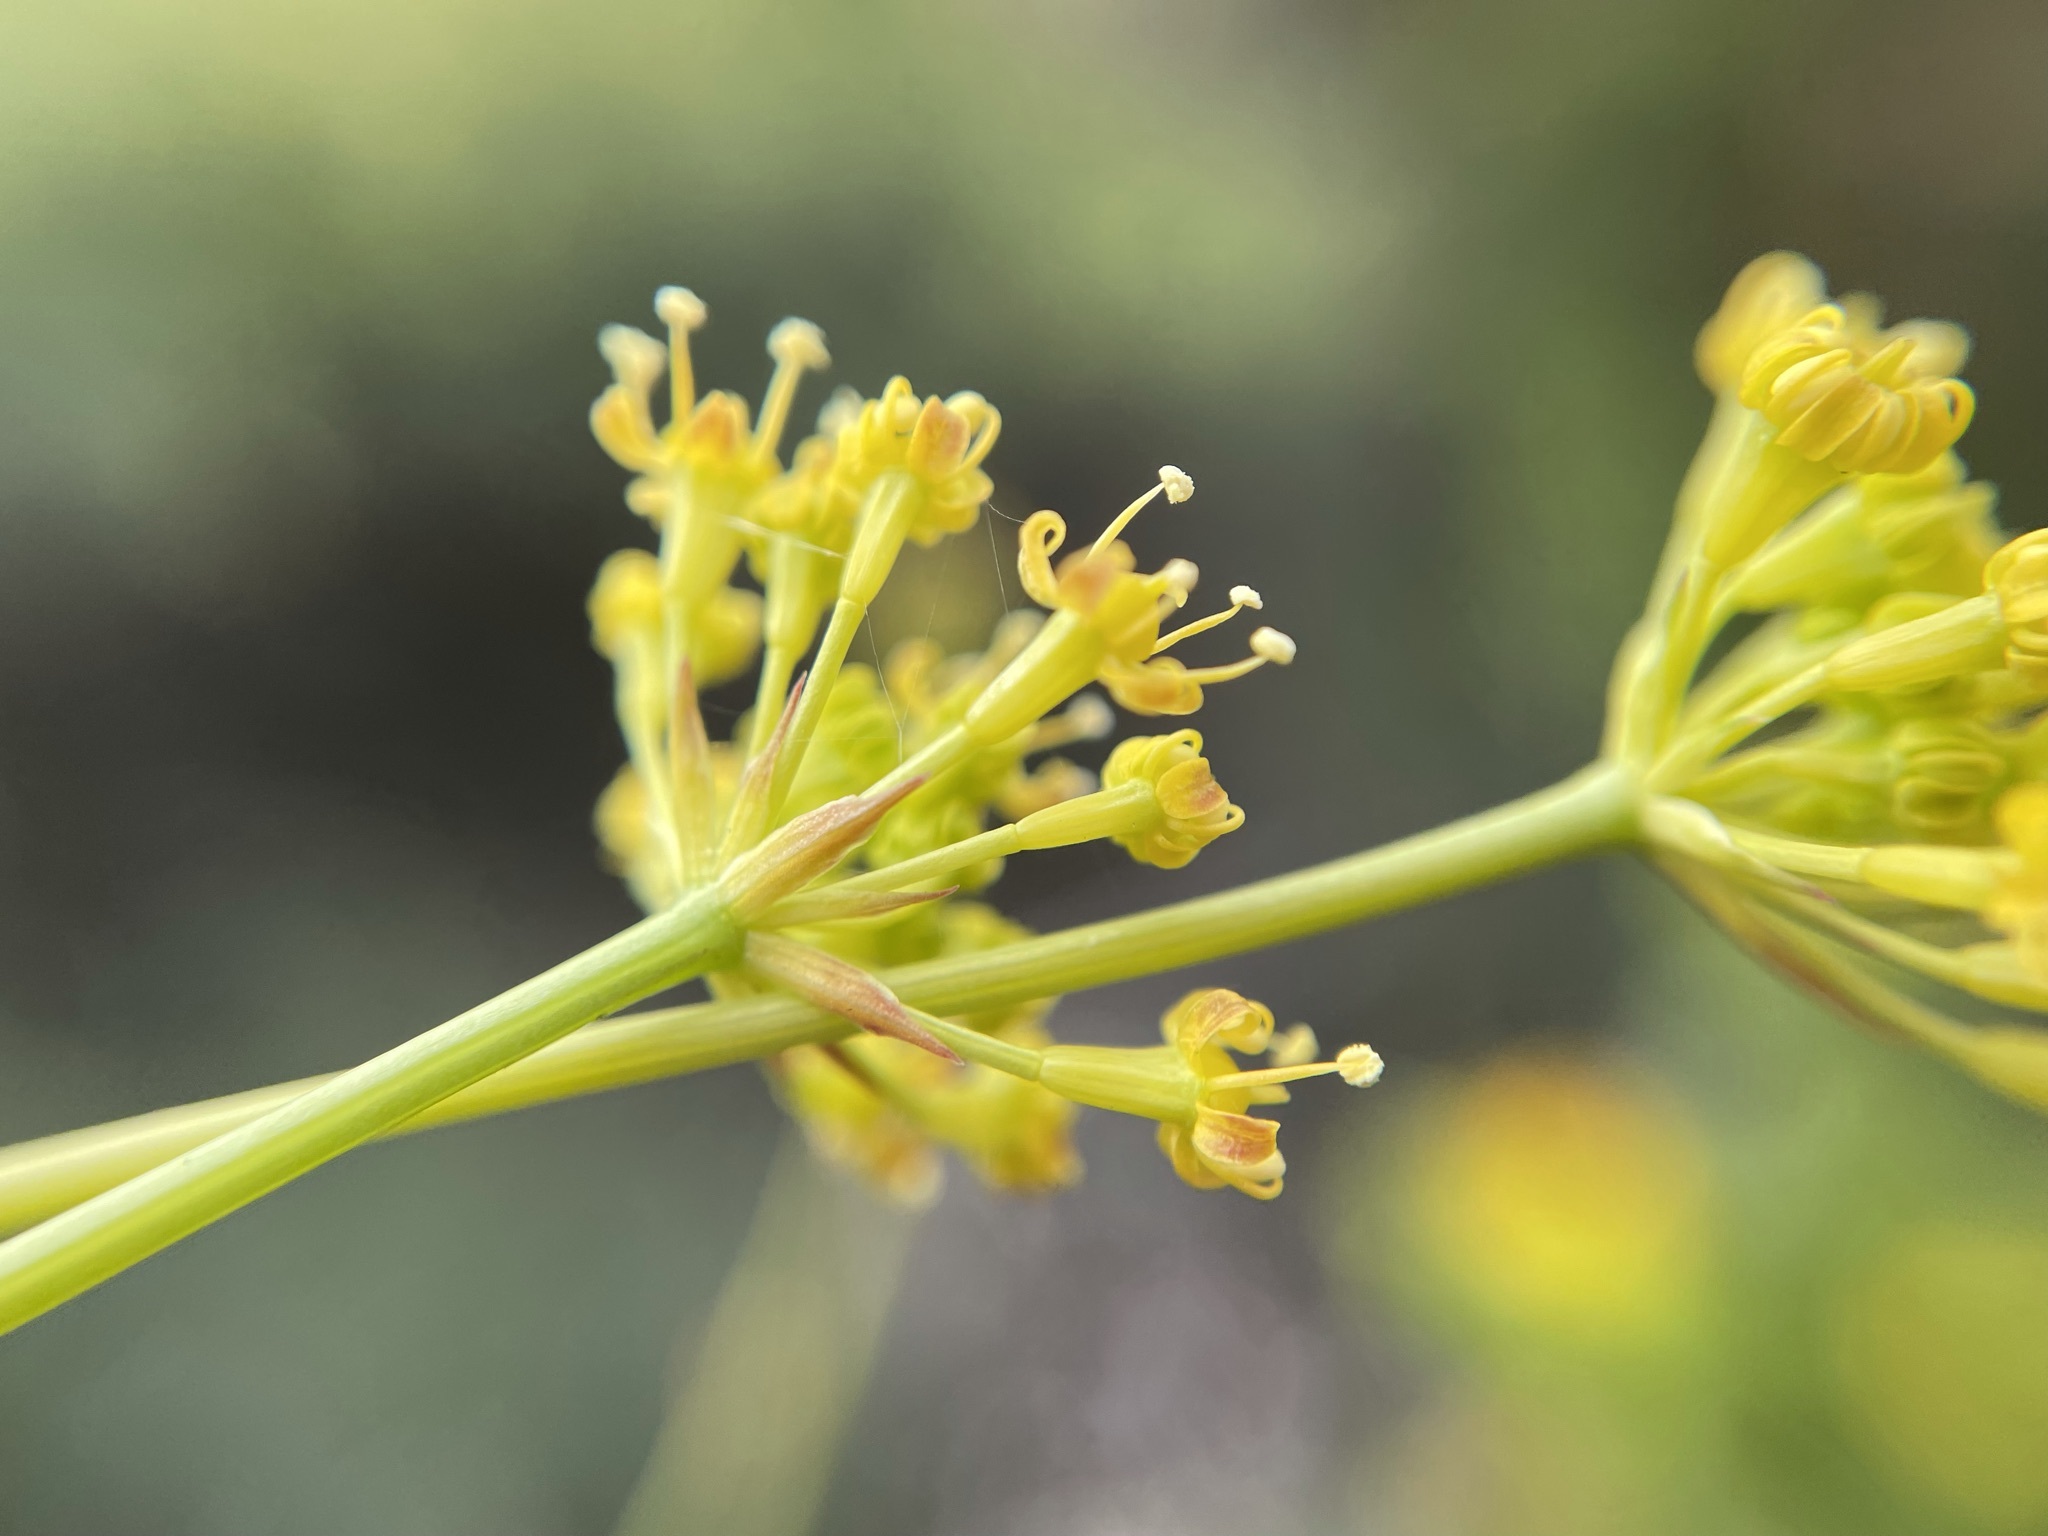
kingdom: Plantae
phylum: Tracheophyta
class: Magnoliopsida
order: Apiales
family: Apiaceae
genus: Annesorhiza
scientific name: Annesorhiza altiscapa
